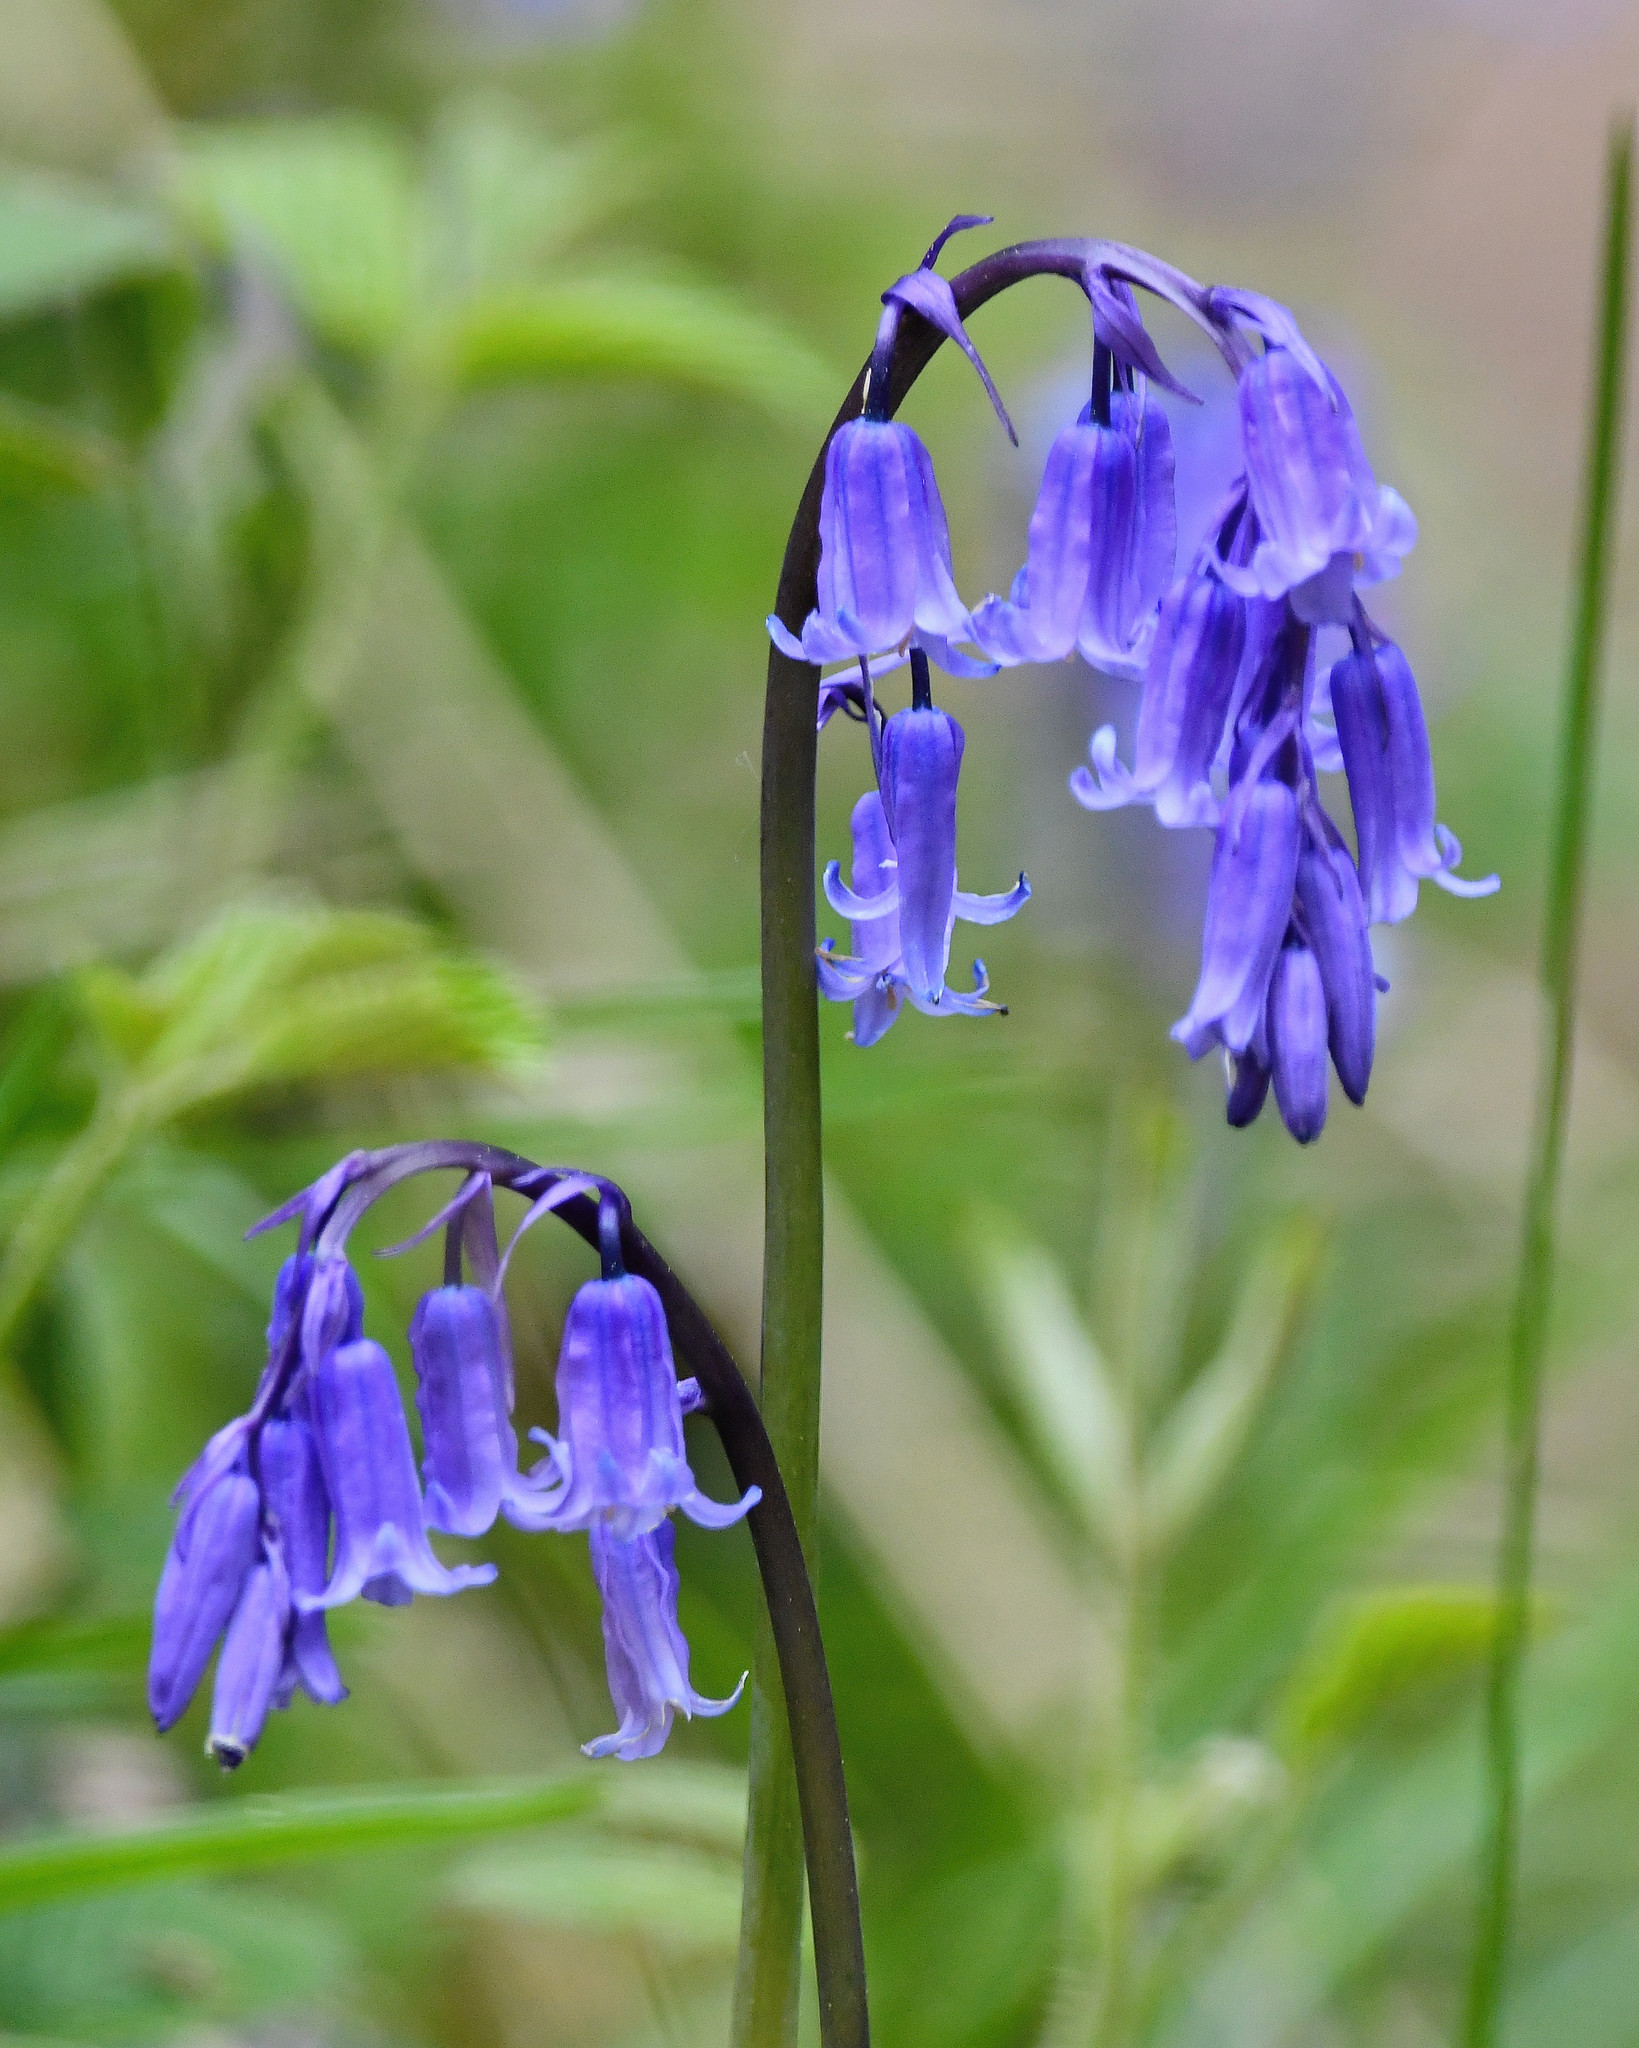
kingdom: Plantae
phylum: Tracheophyta
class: Liliopsida
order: Asparagales
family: Asparagaceae
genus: Hyacinthoides
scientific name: Hyacinthoides non-scripta
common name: Bluebell
